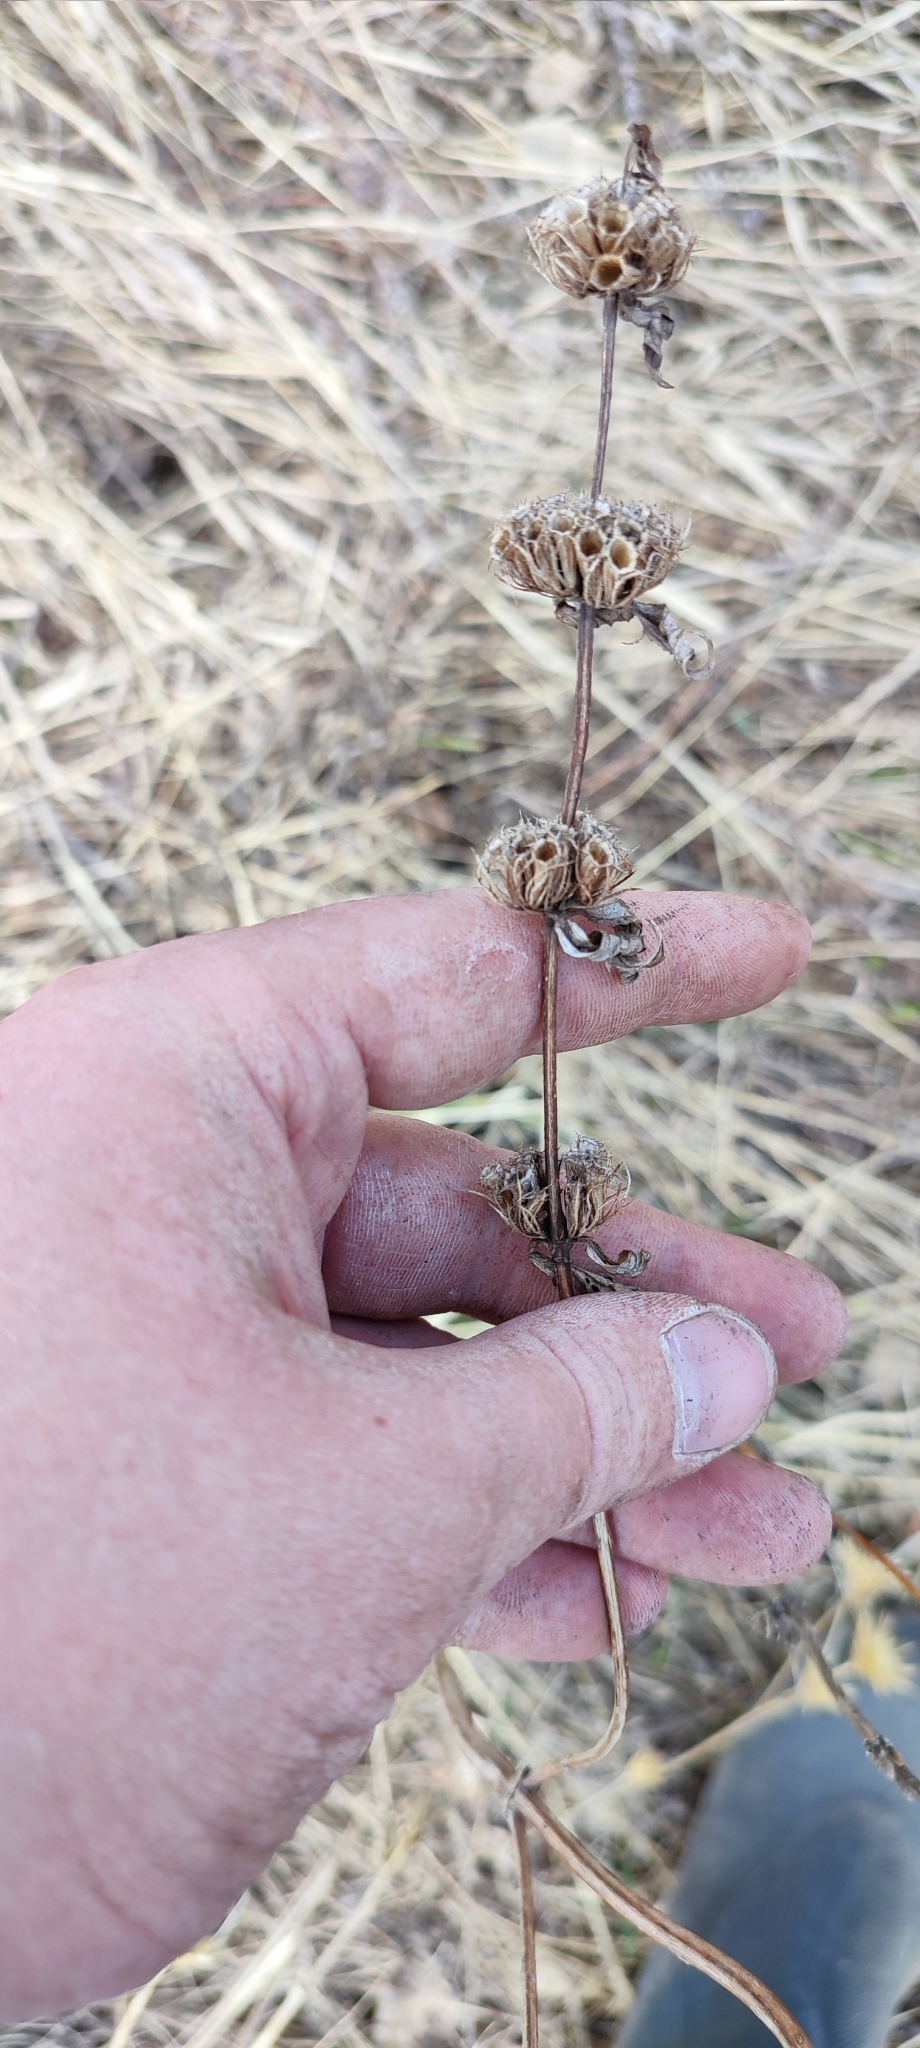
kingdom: Plantae
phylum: Tracheophyta
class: Magnoliopsida
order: Lamiales
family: Lamiaceae
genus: Phlomoides
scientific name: Phlomoides tuberosa
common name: Tuberous jerusalem sage
